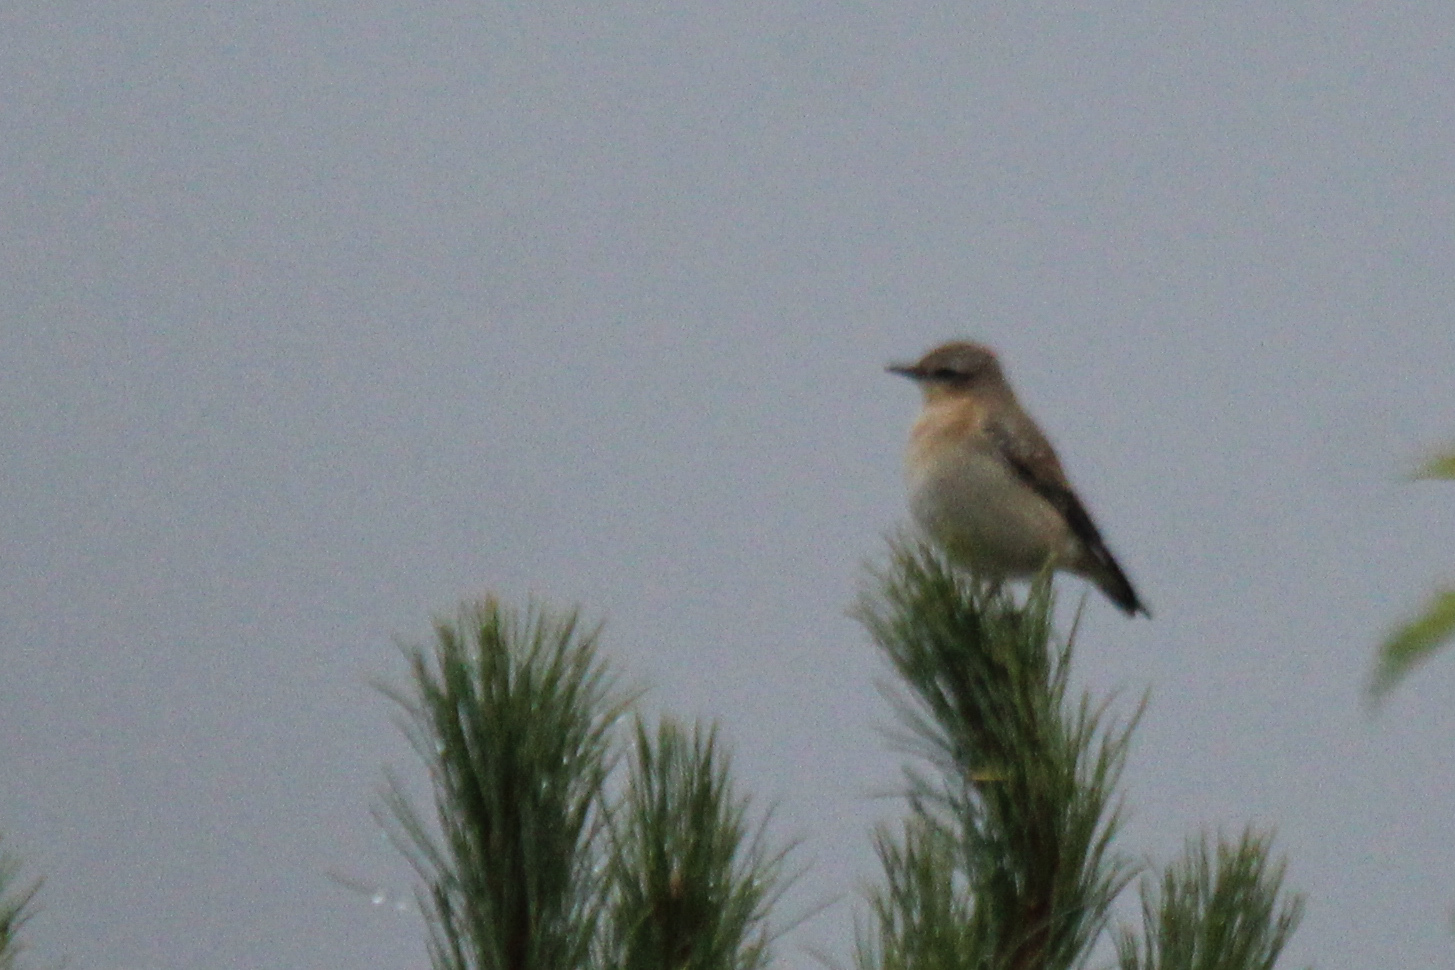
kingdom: Animalia
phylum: Chordata
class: Aves
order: Passeriformes
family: Muscicapidae
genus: Oenanthe
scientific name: Oenanthe oenanthe
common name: Northern wheatear
